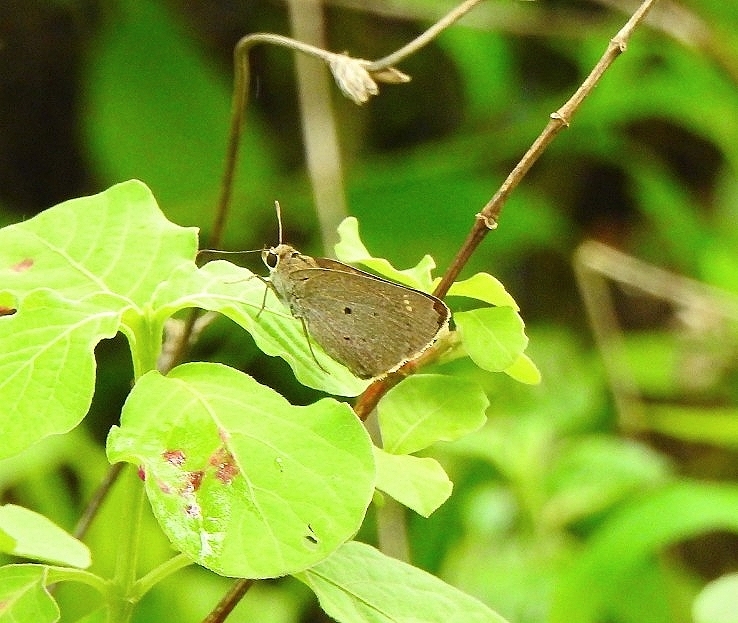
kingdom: Animalia
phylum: Arthropoda
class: Insecta
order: Lepidoptera
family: Hesperiidae
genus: Suastus
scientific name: Suastus gremius
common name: Indian palm bob
